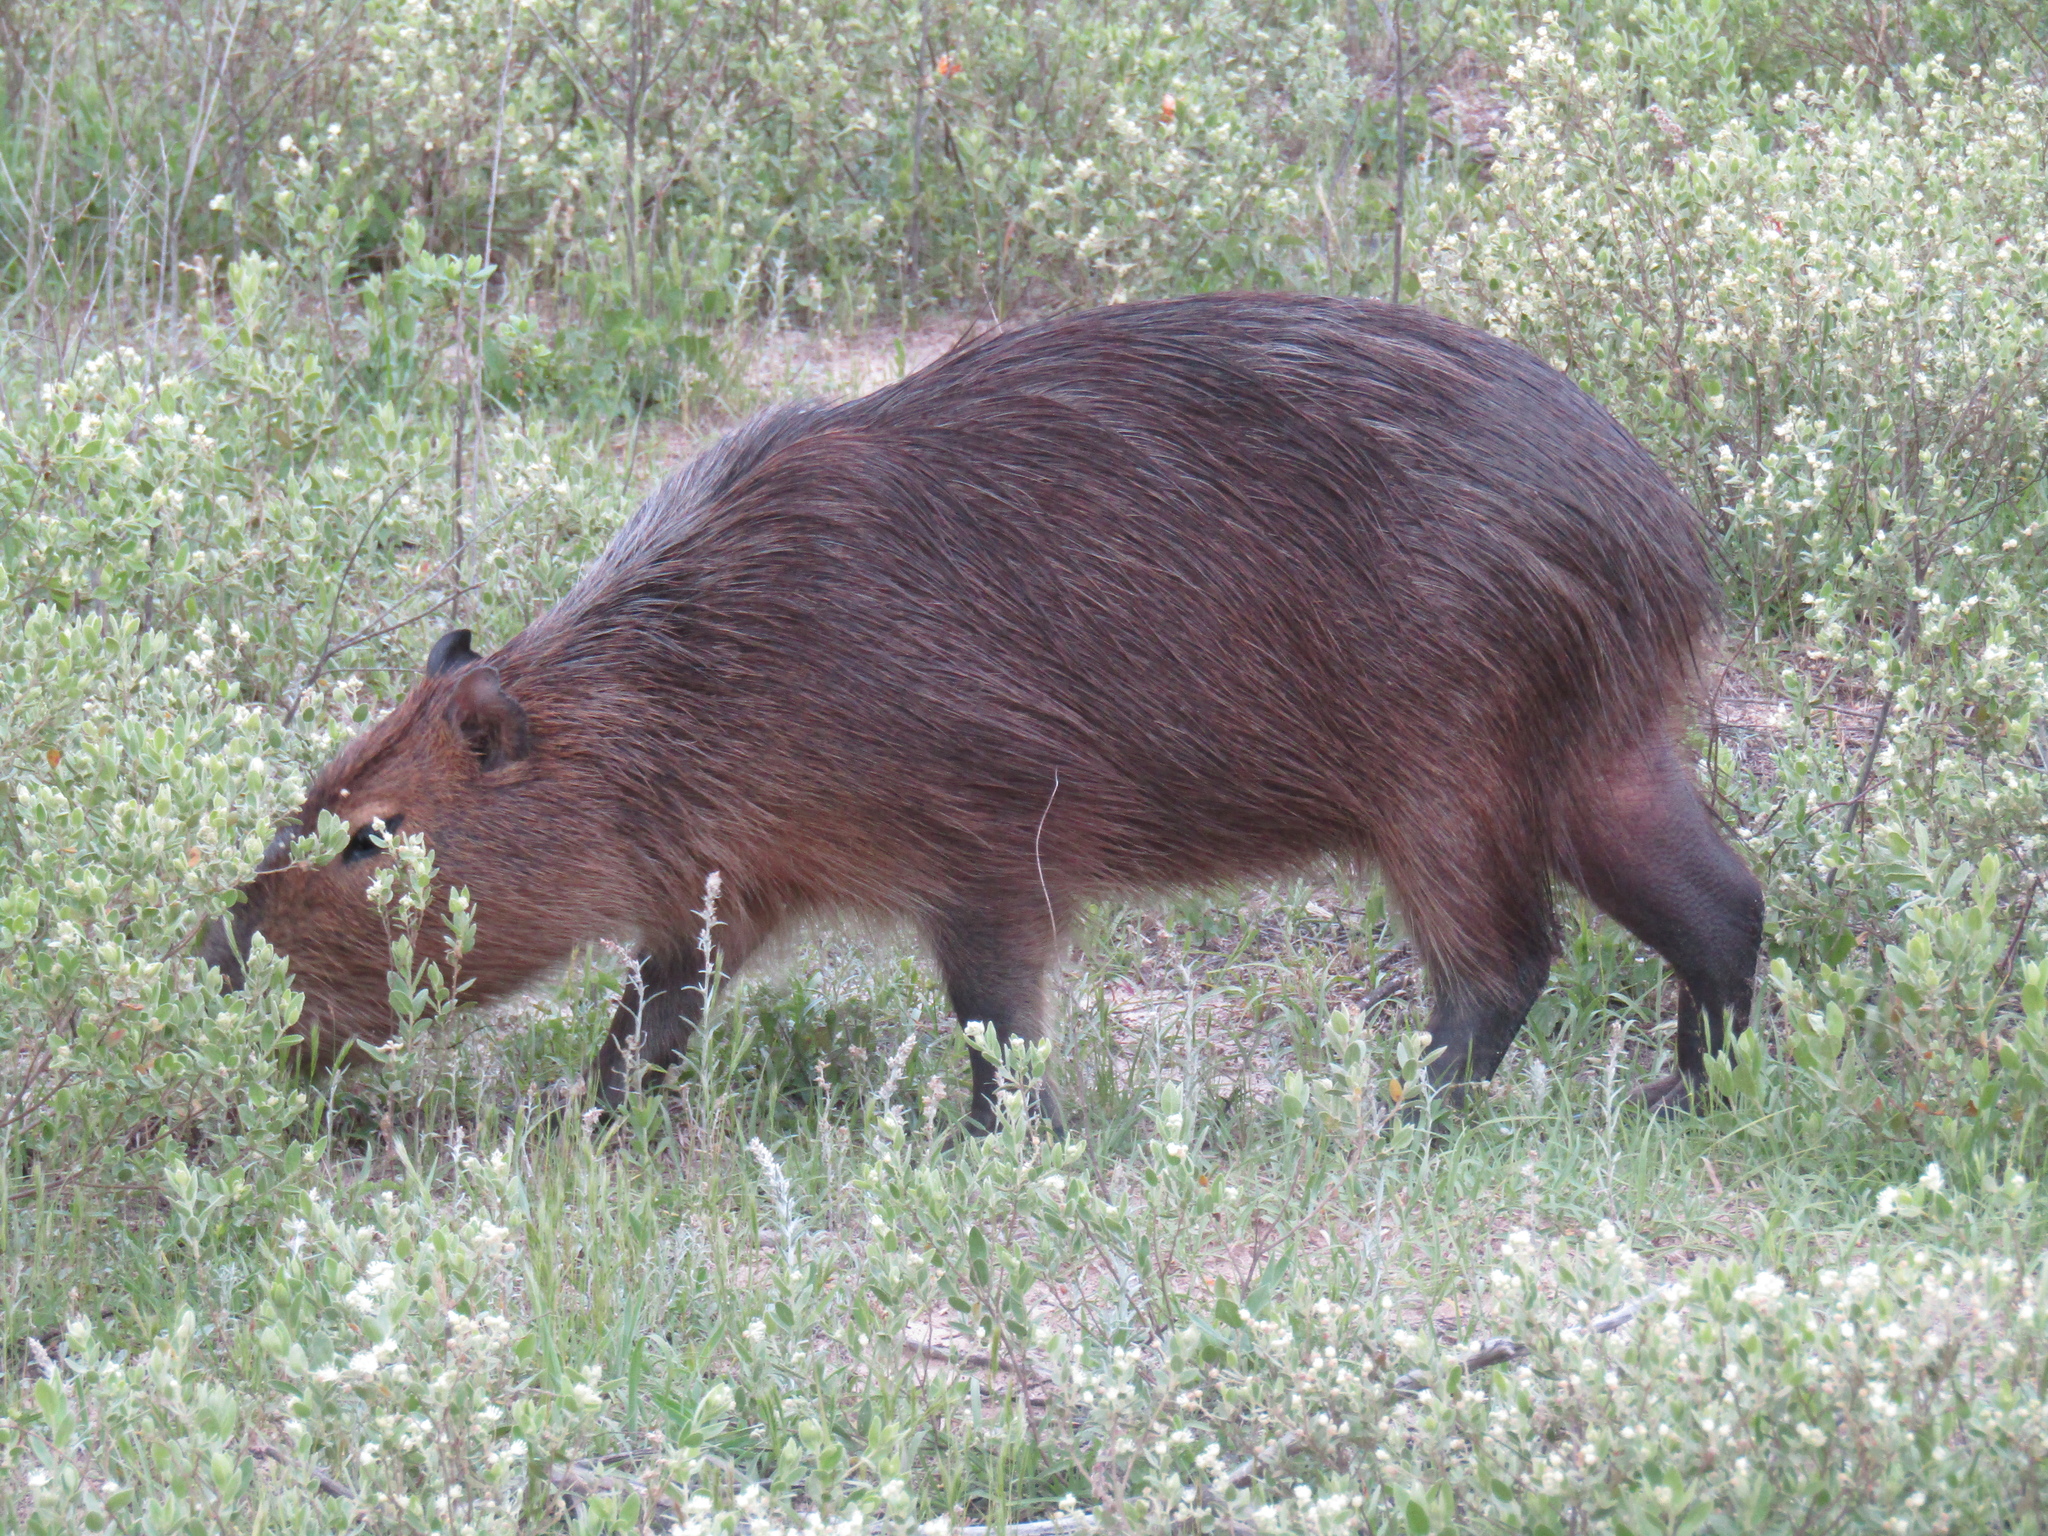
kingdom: Animalia
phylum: Chordata
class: Mammalia
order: Rodentia
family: Caviidae
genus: Hydrochoerus
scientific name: Hydrochoerus hydrochaeris
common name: Capybara
